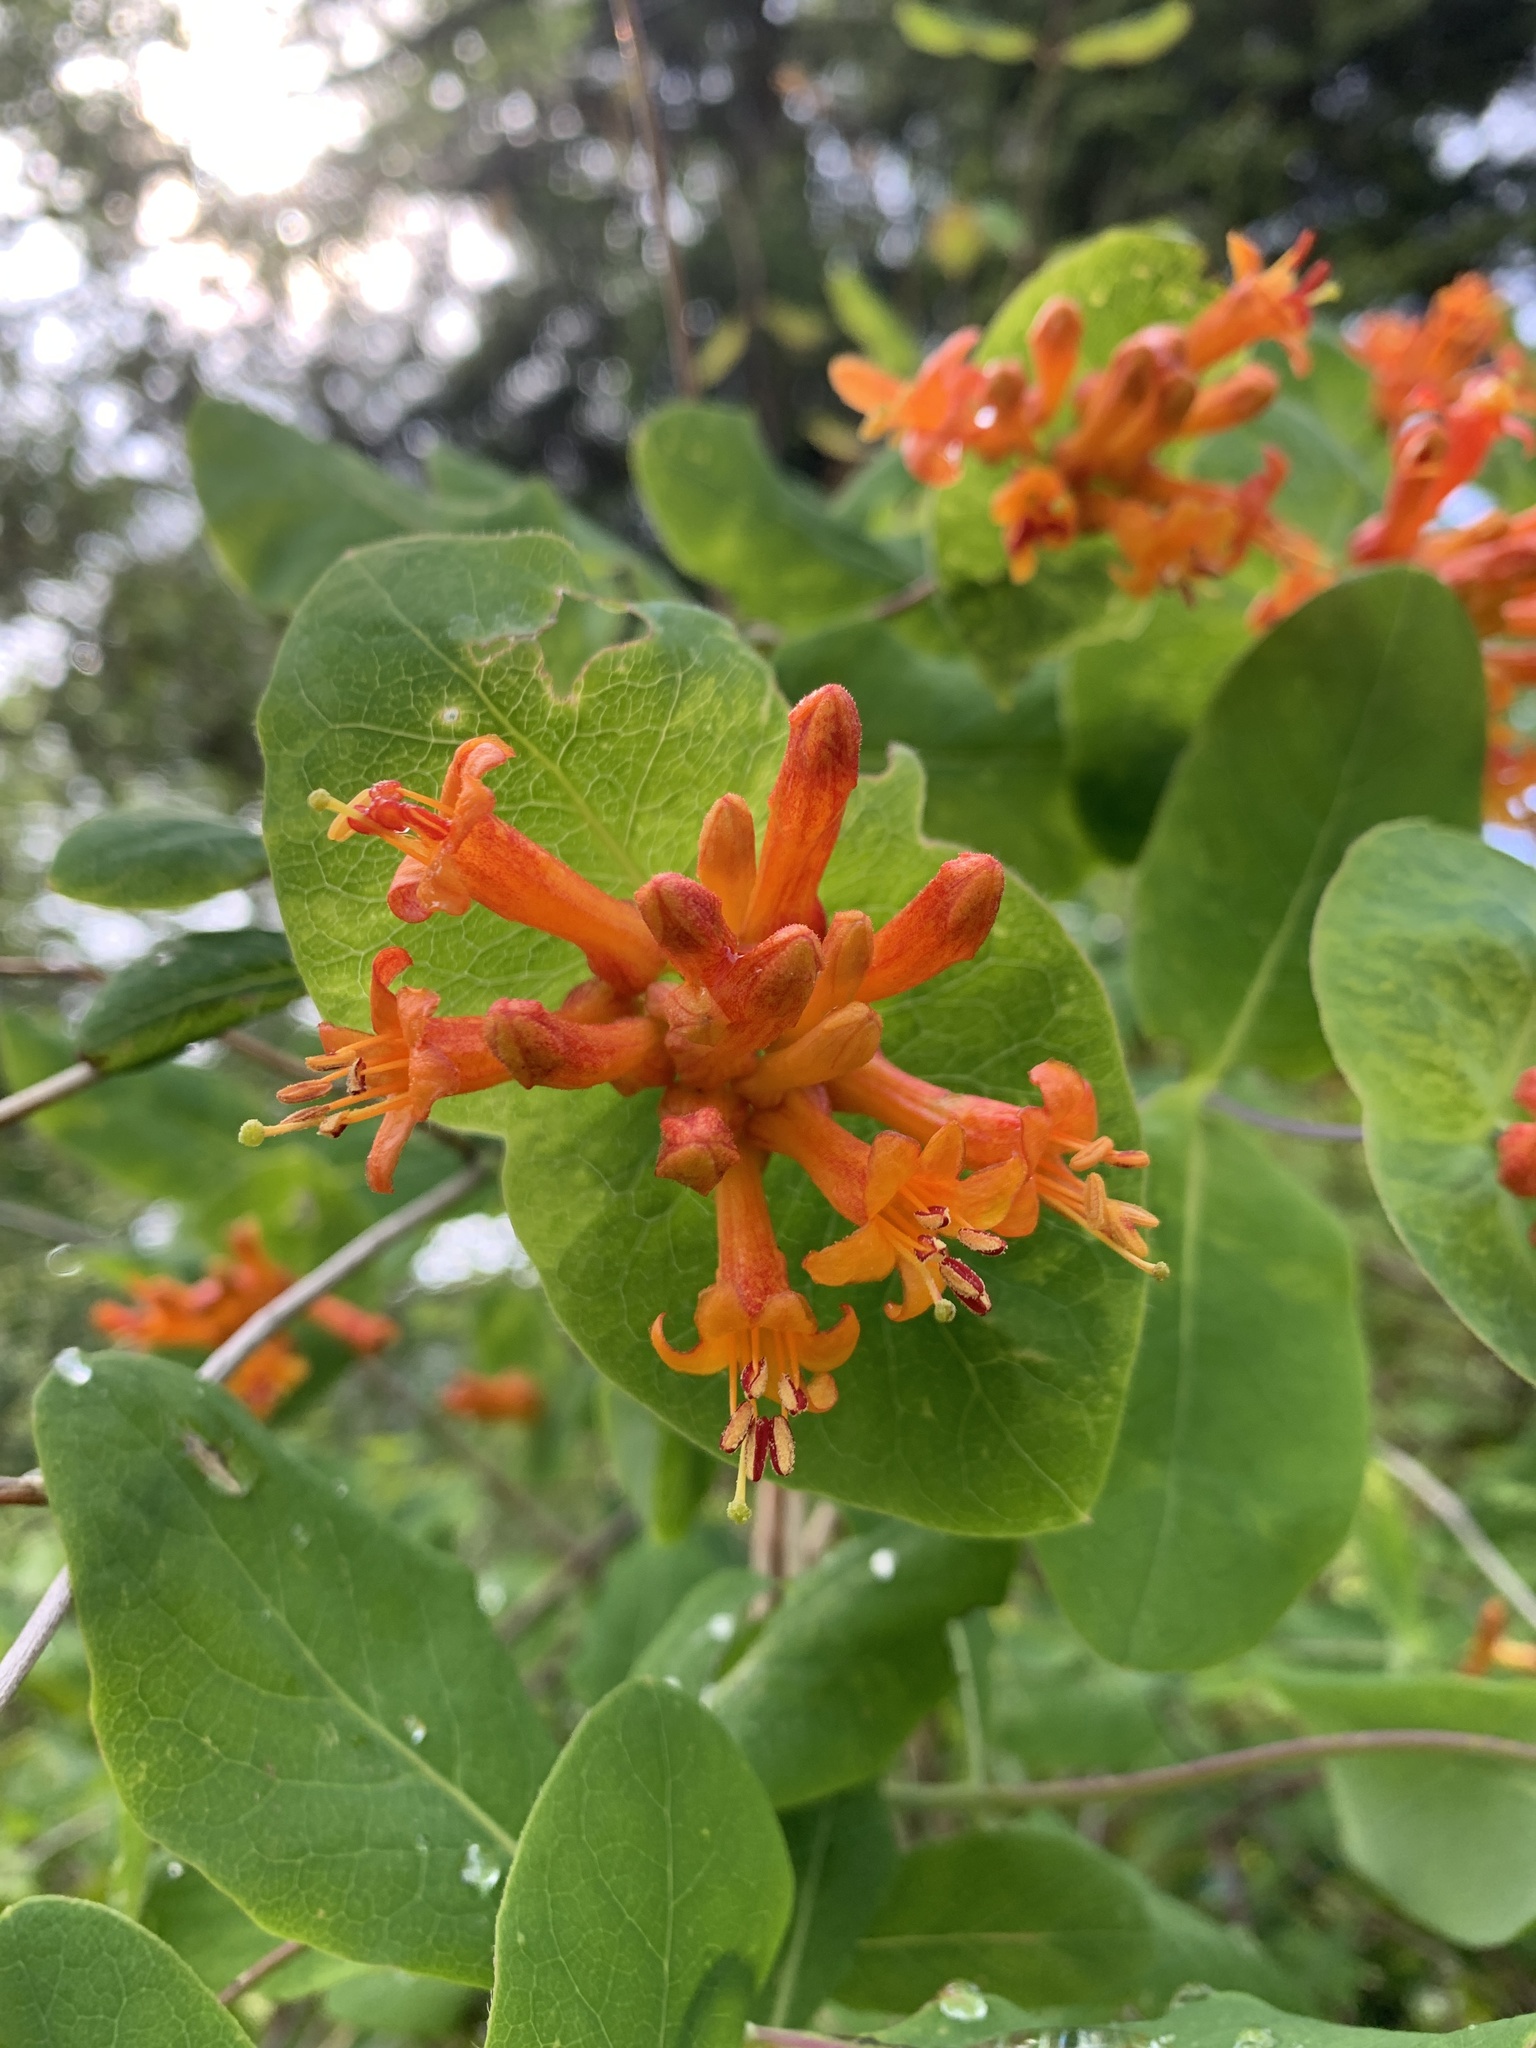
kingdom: Plantae
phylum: Tracheophyta
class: Magnoliopsida
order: Dipsacales
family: Caprifoliaceae
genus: Lonicera
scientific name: Lonicera ciliosa
